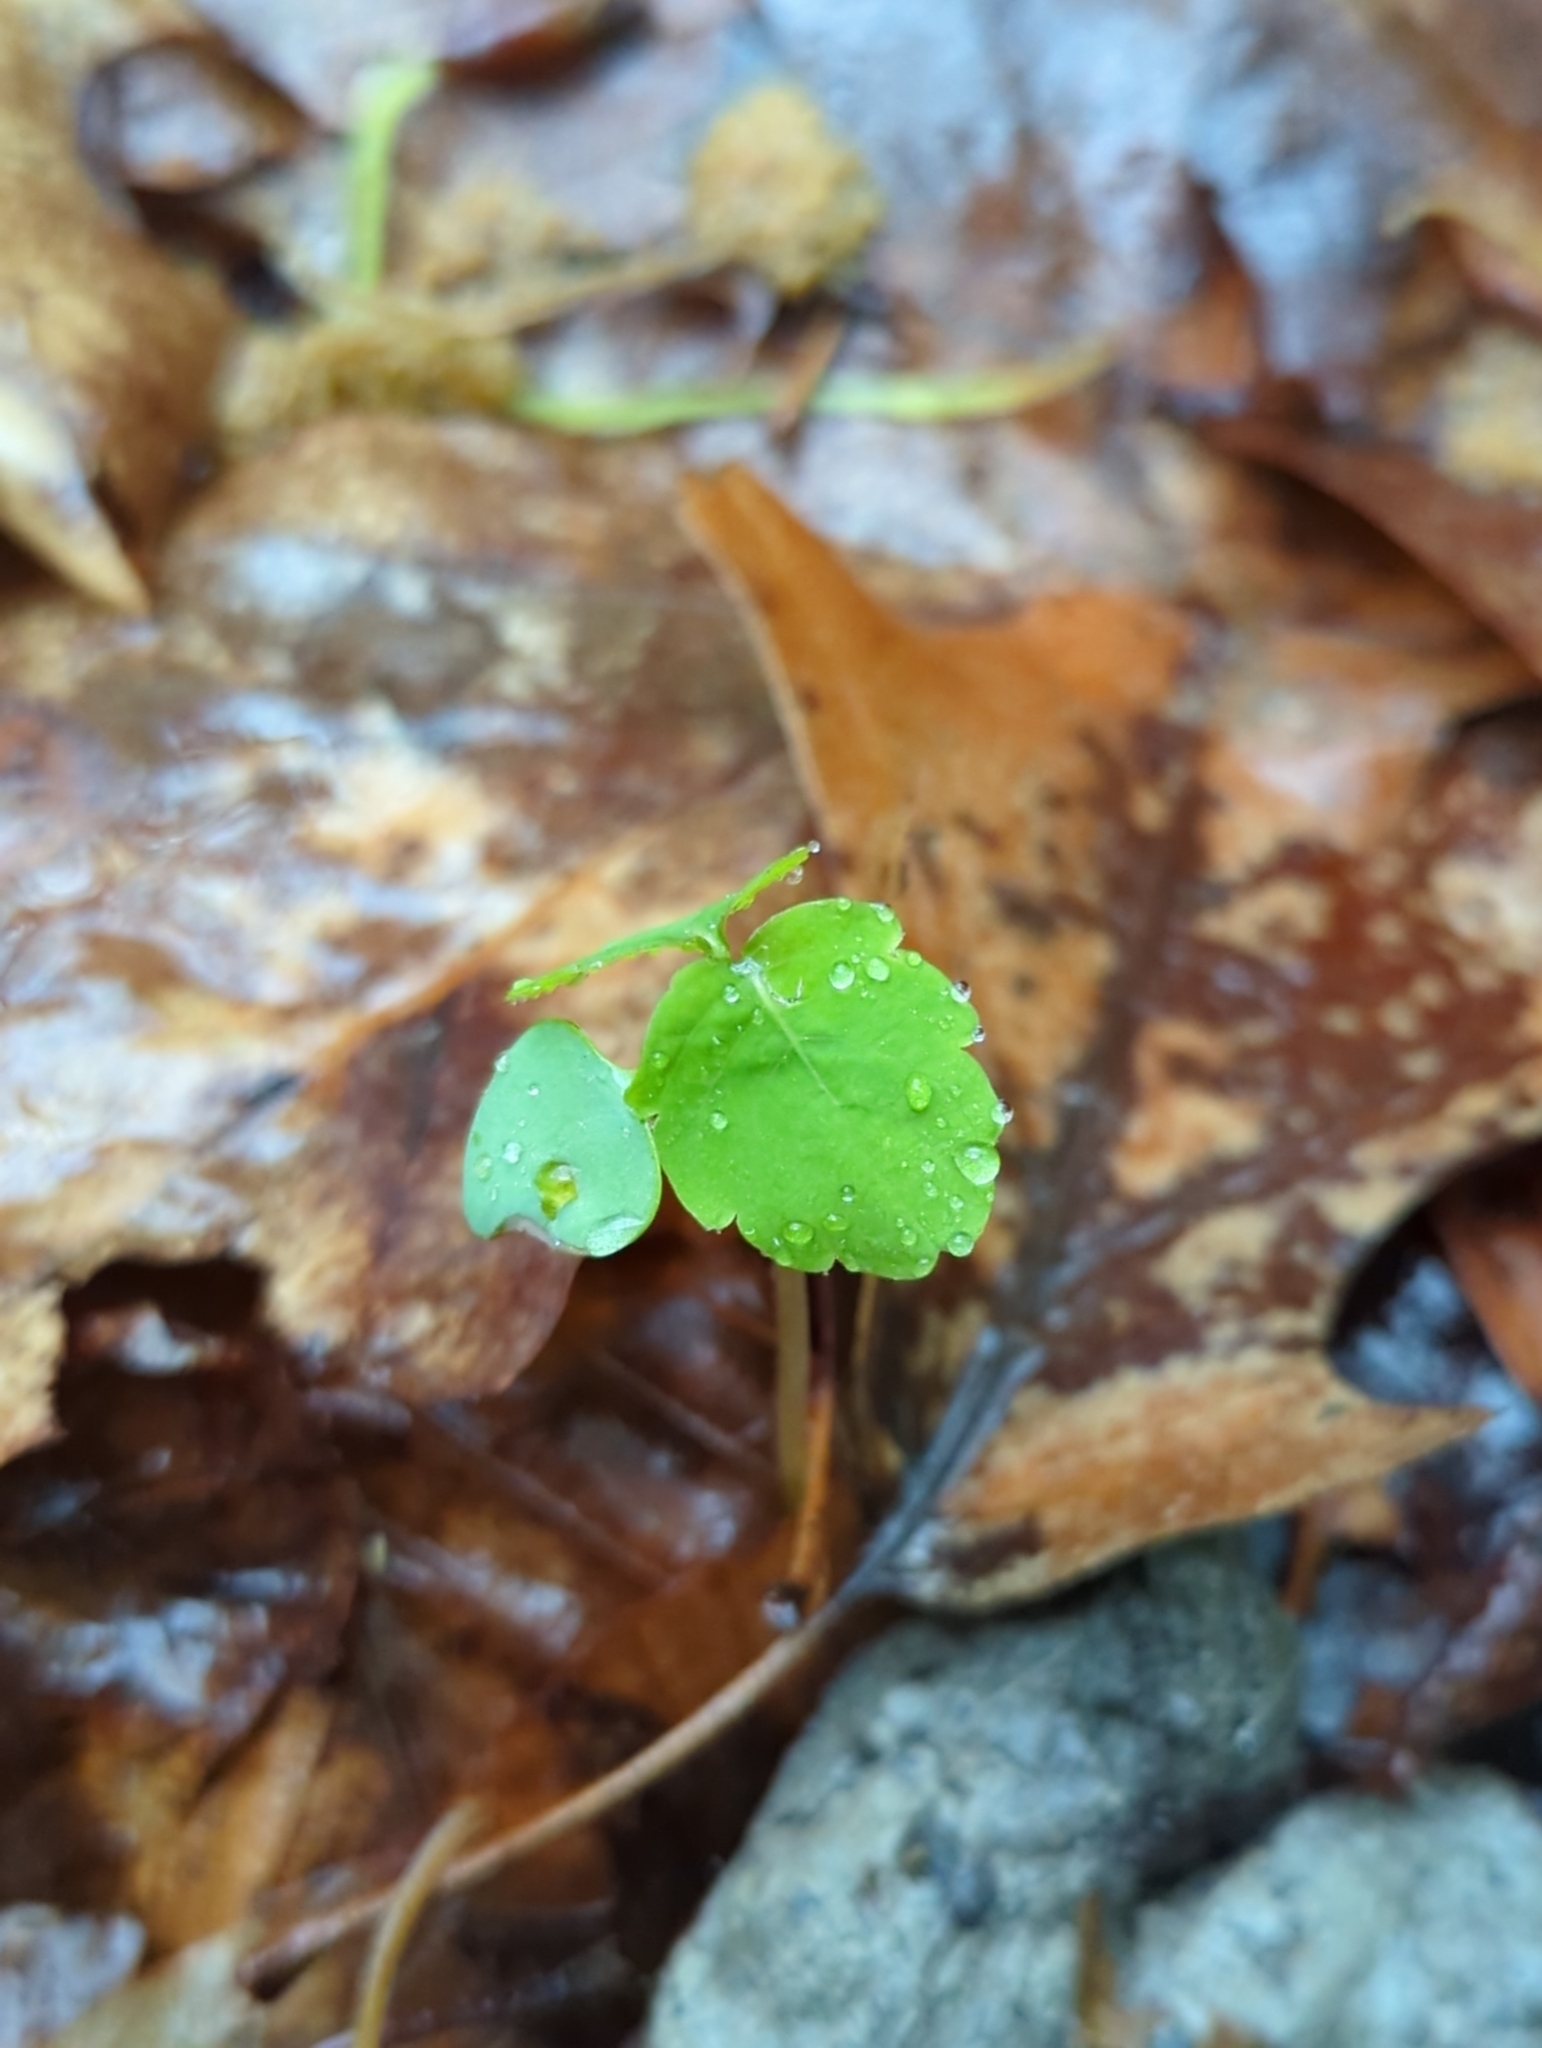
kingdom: Plantae
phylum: Tracheophyta
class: Magnoliopsida
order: Ericales
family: Balsaminaceae
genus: Impatiens
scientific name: Impatiens capensis
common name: Orange balsam
